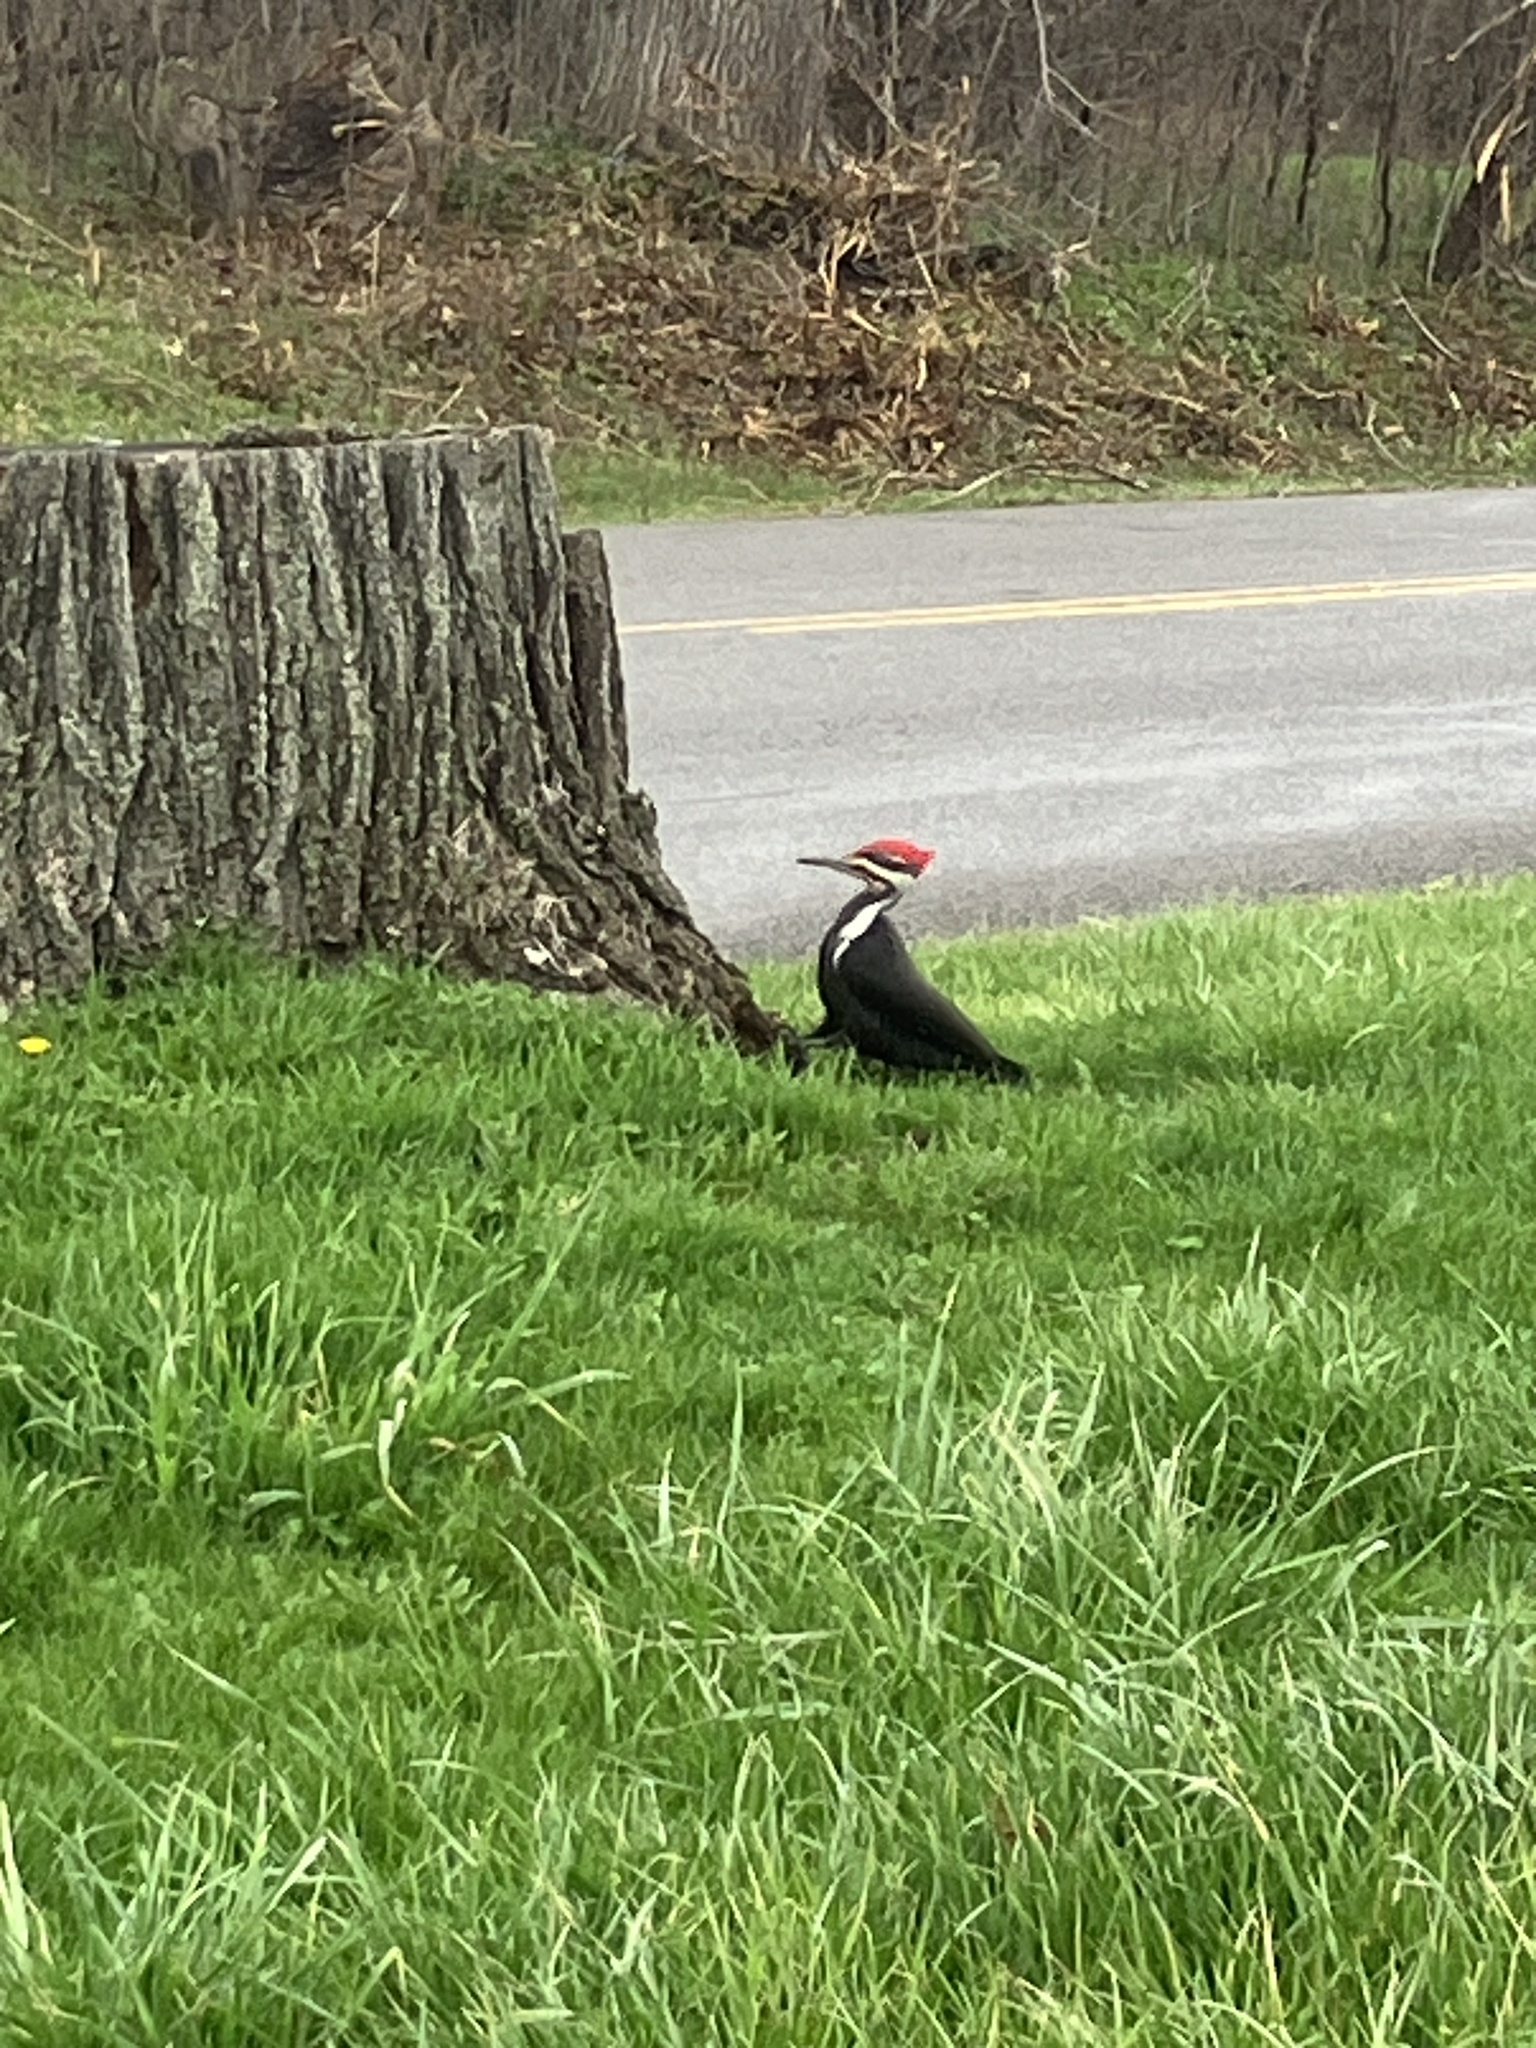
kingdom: Animalia
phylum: Chordata
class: Aves
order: Piciformes
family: Picidae
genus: Dryocopus
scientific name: Dryocopus pileatus
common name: Pileated woodpecker
